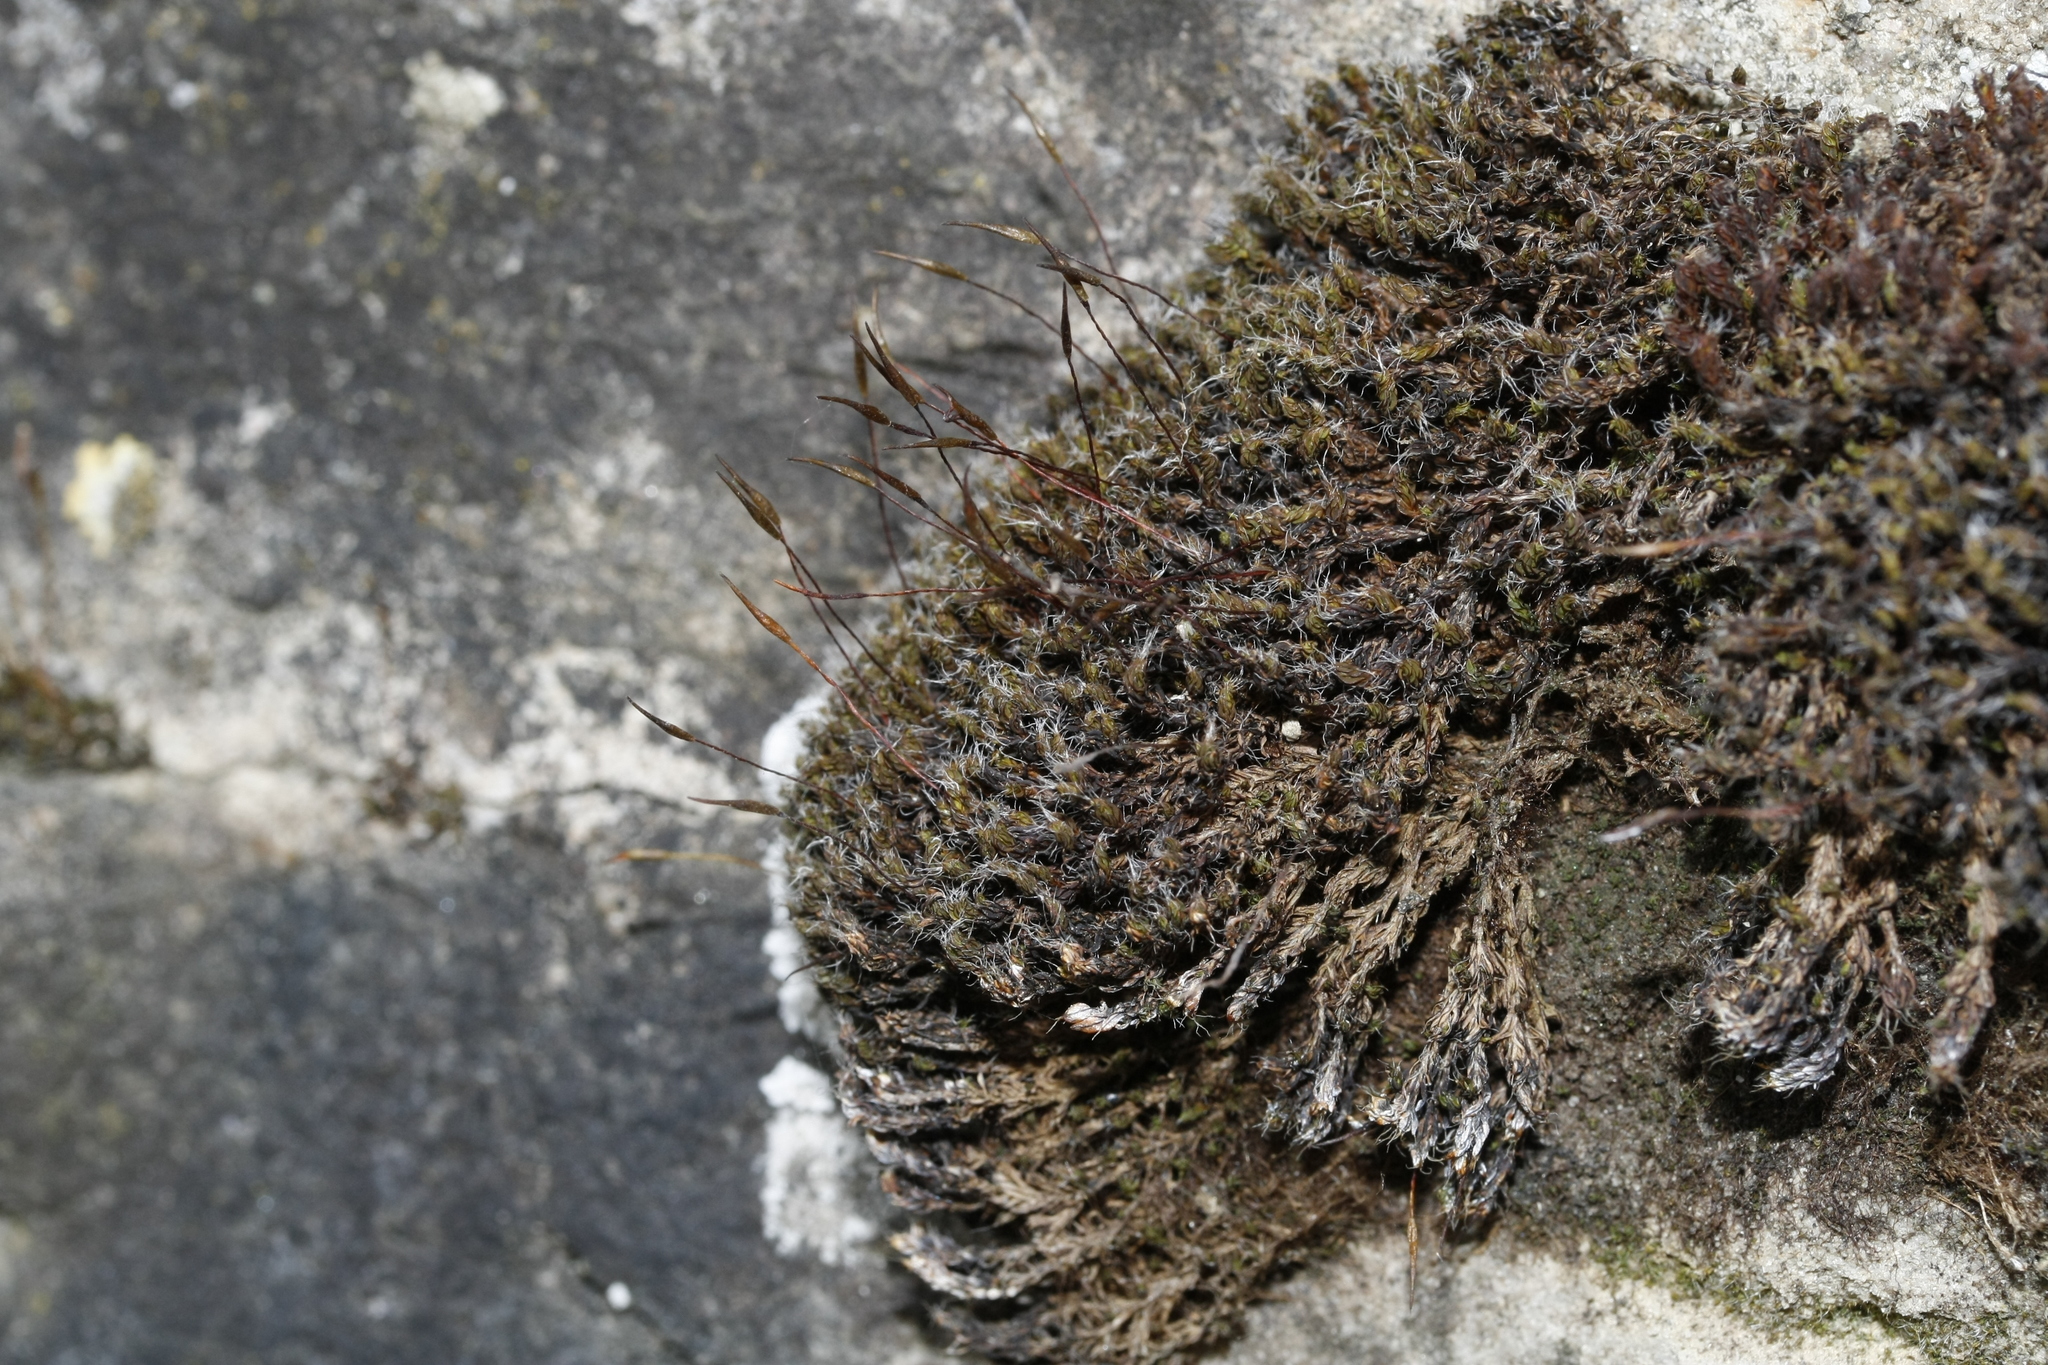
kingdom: Plantae
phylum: Bryophyta
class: Bryopsida
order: Pottiales
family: Pottiaceae
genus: Syntrichia
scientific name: Syntrichia ruralis
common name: Sidewalk screw moss
